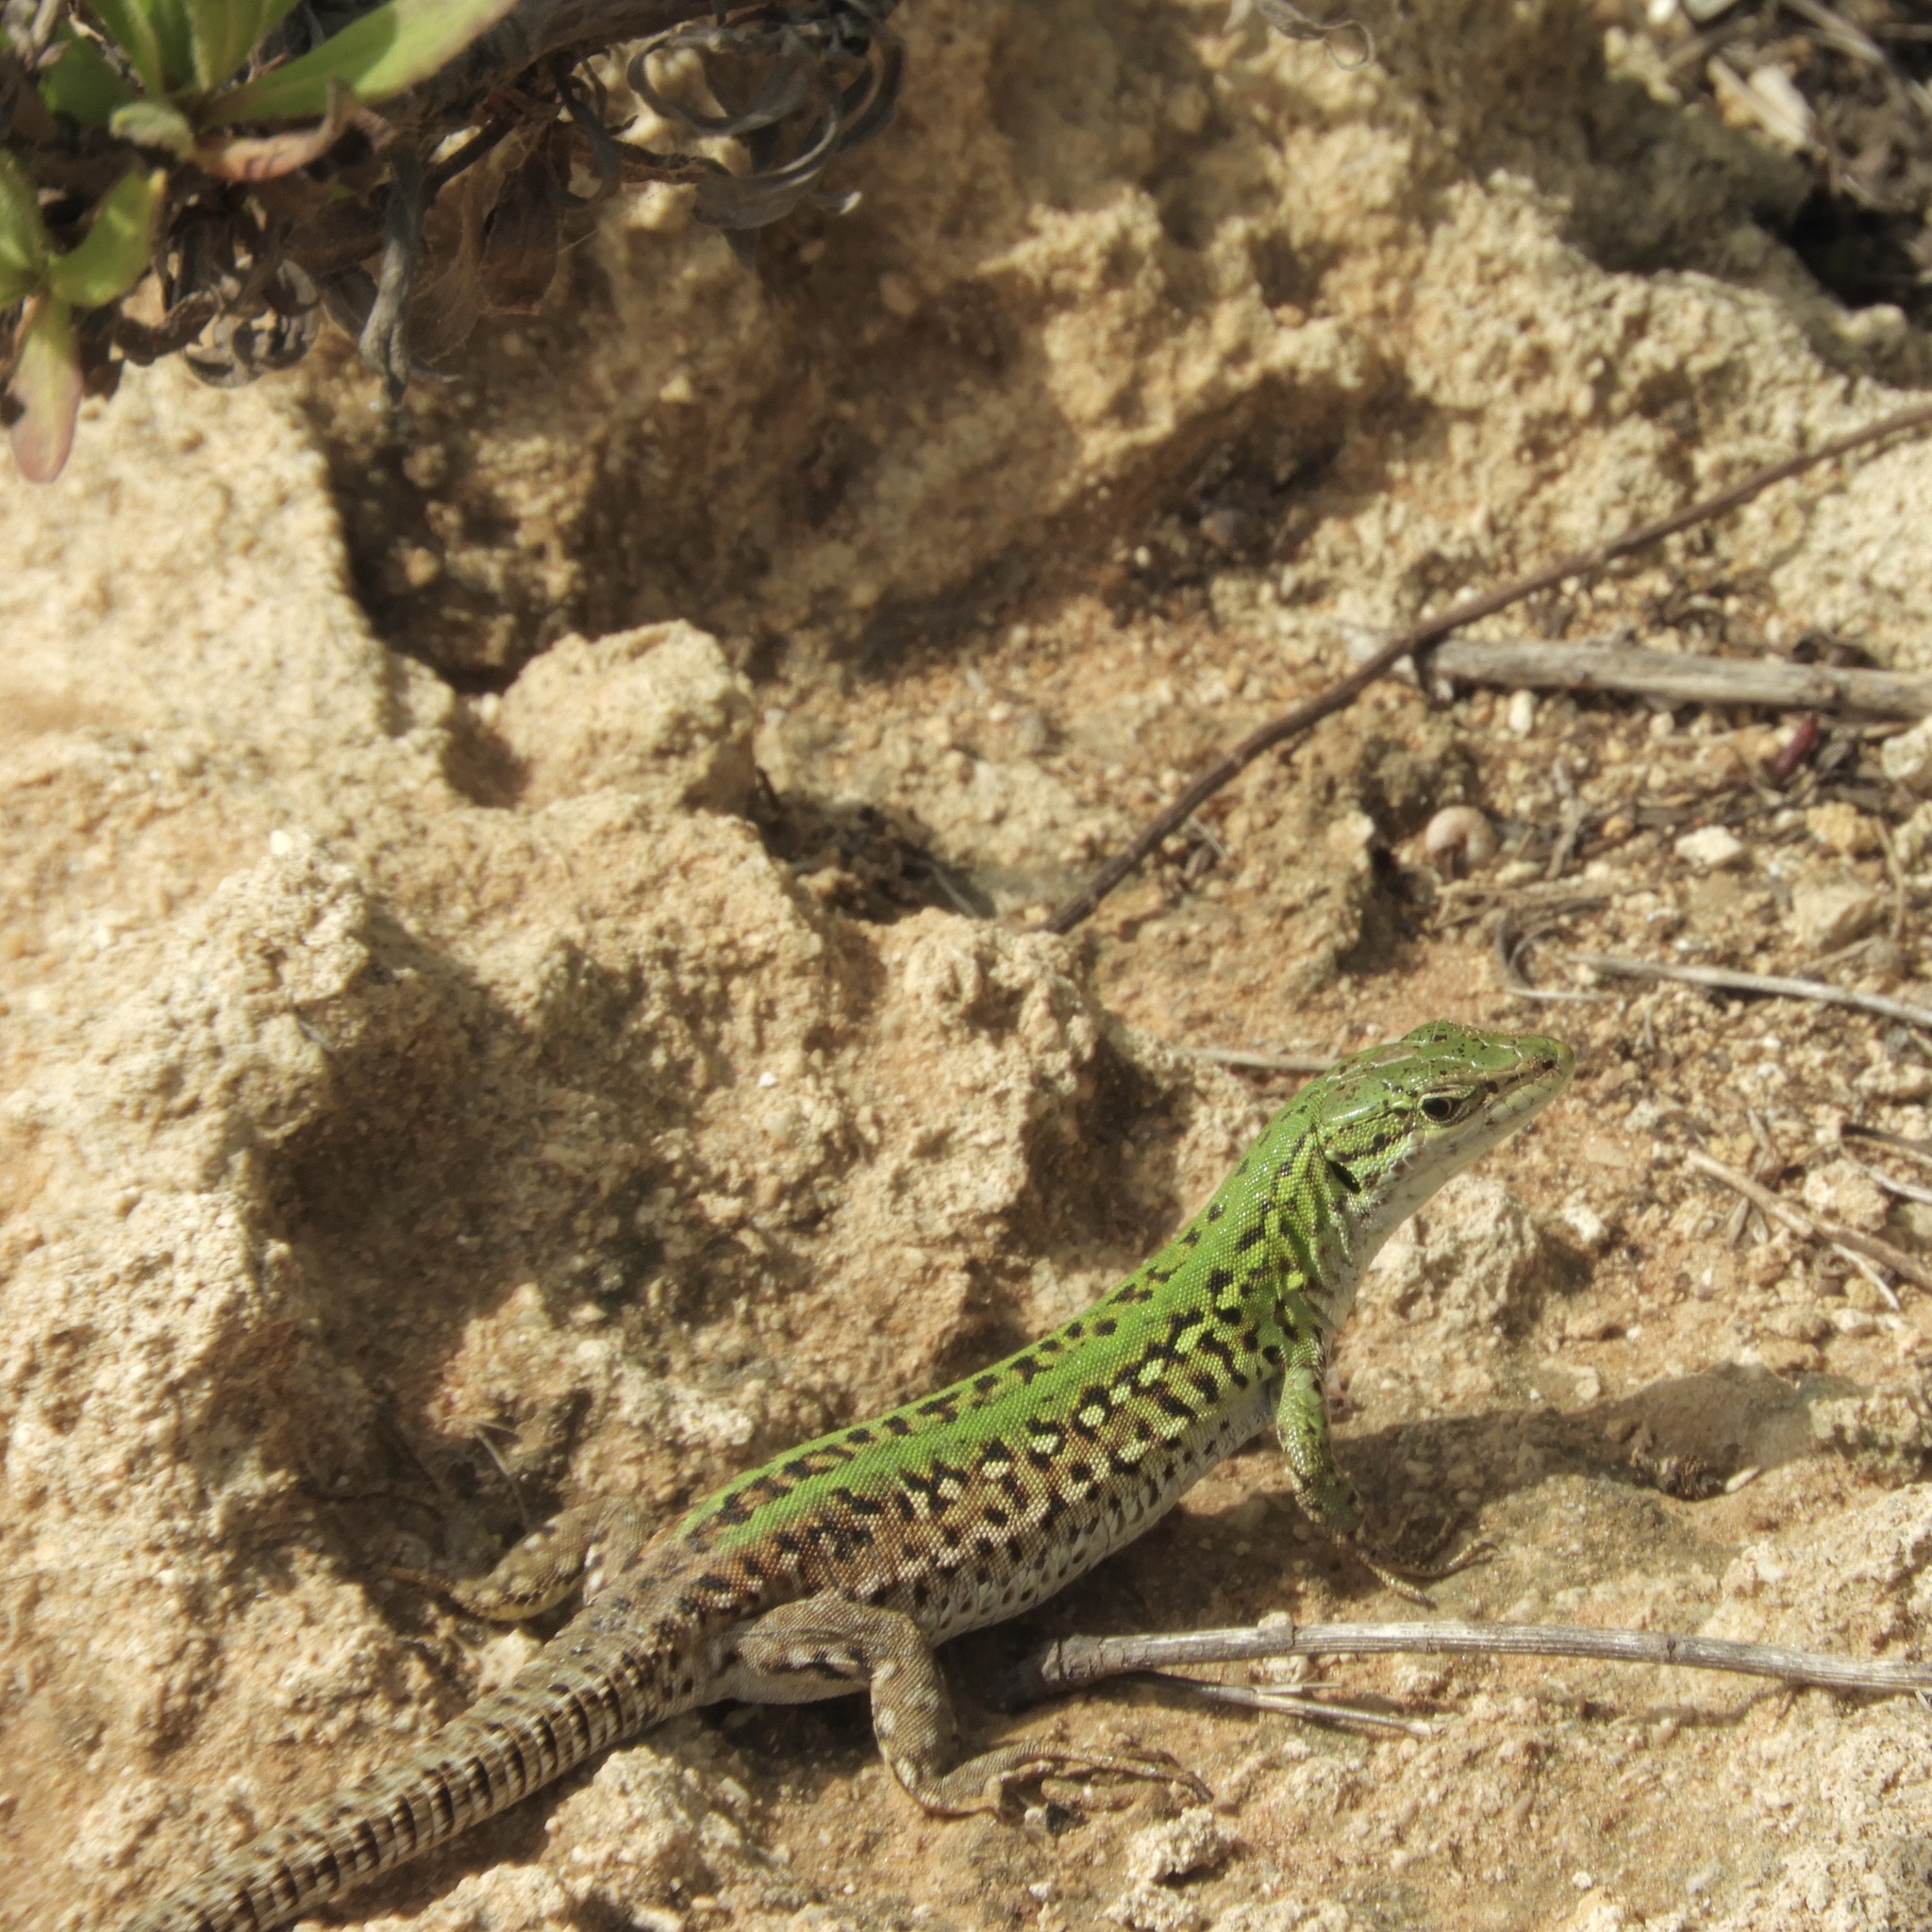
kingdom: Animalia
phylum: Chordata
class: Squamata
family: Lacertidae
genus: Podarcis
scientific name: Podarcis siculus
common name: Italian wall lizard
